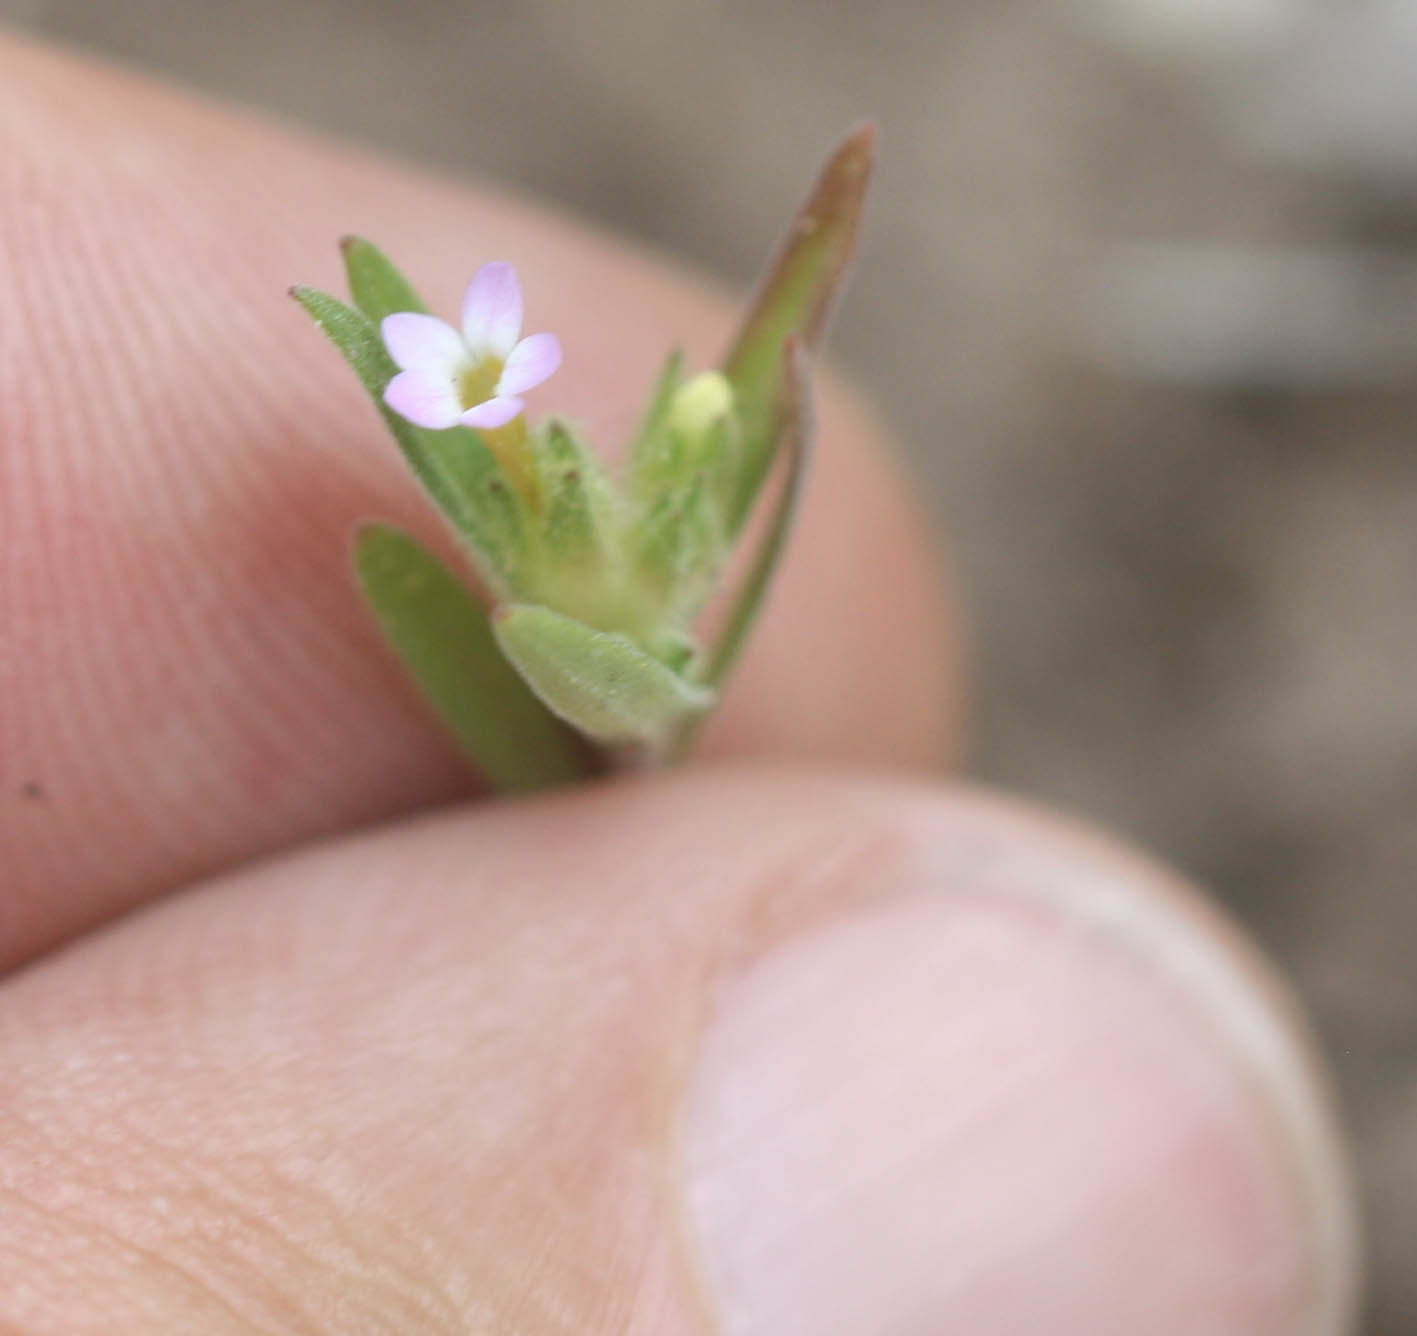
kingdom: Plantae
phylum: Tracheophyta
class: Magnoliopsida
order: Ericales
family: Polemoniaceae
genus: Collomia
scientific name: Collomia linearis
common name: Tiny trumpet
